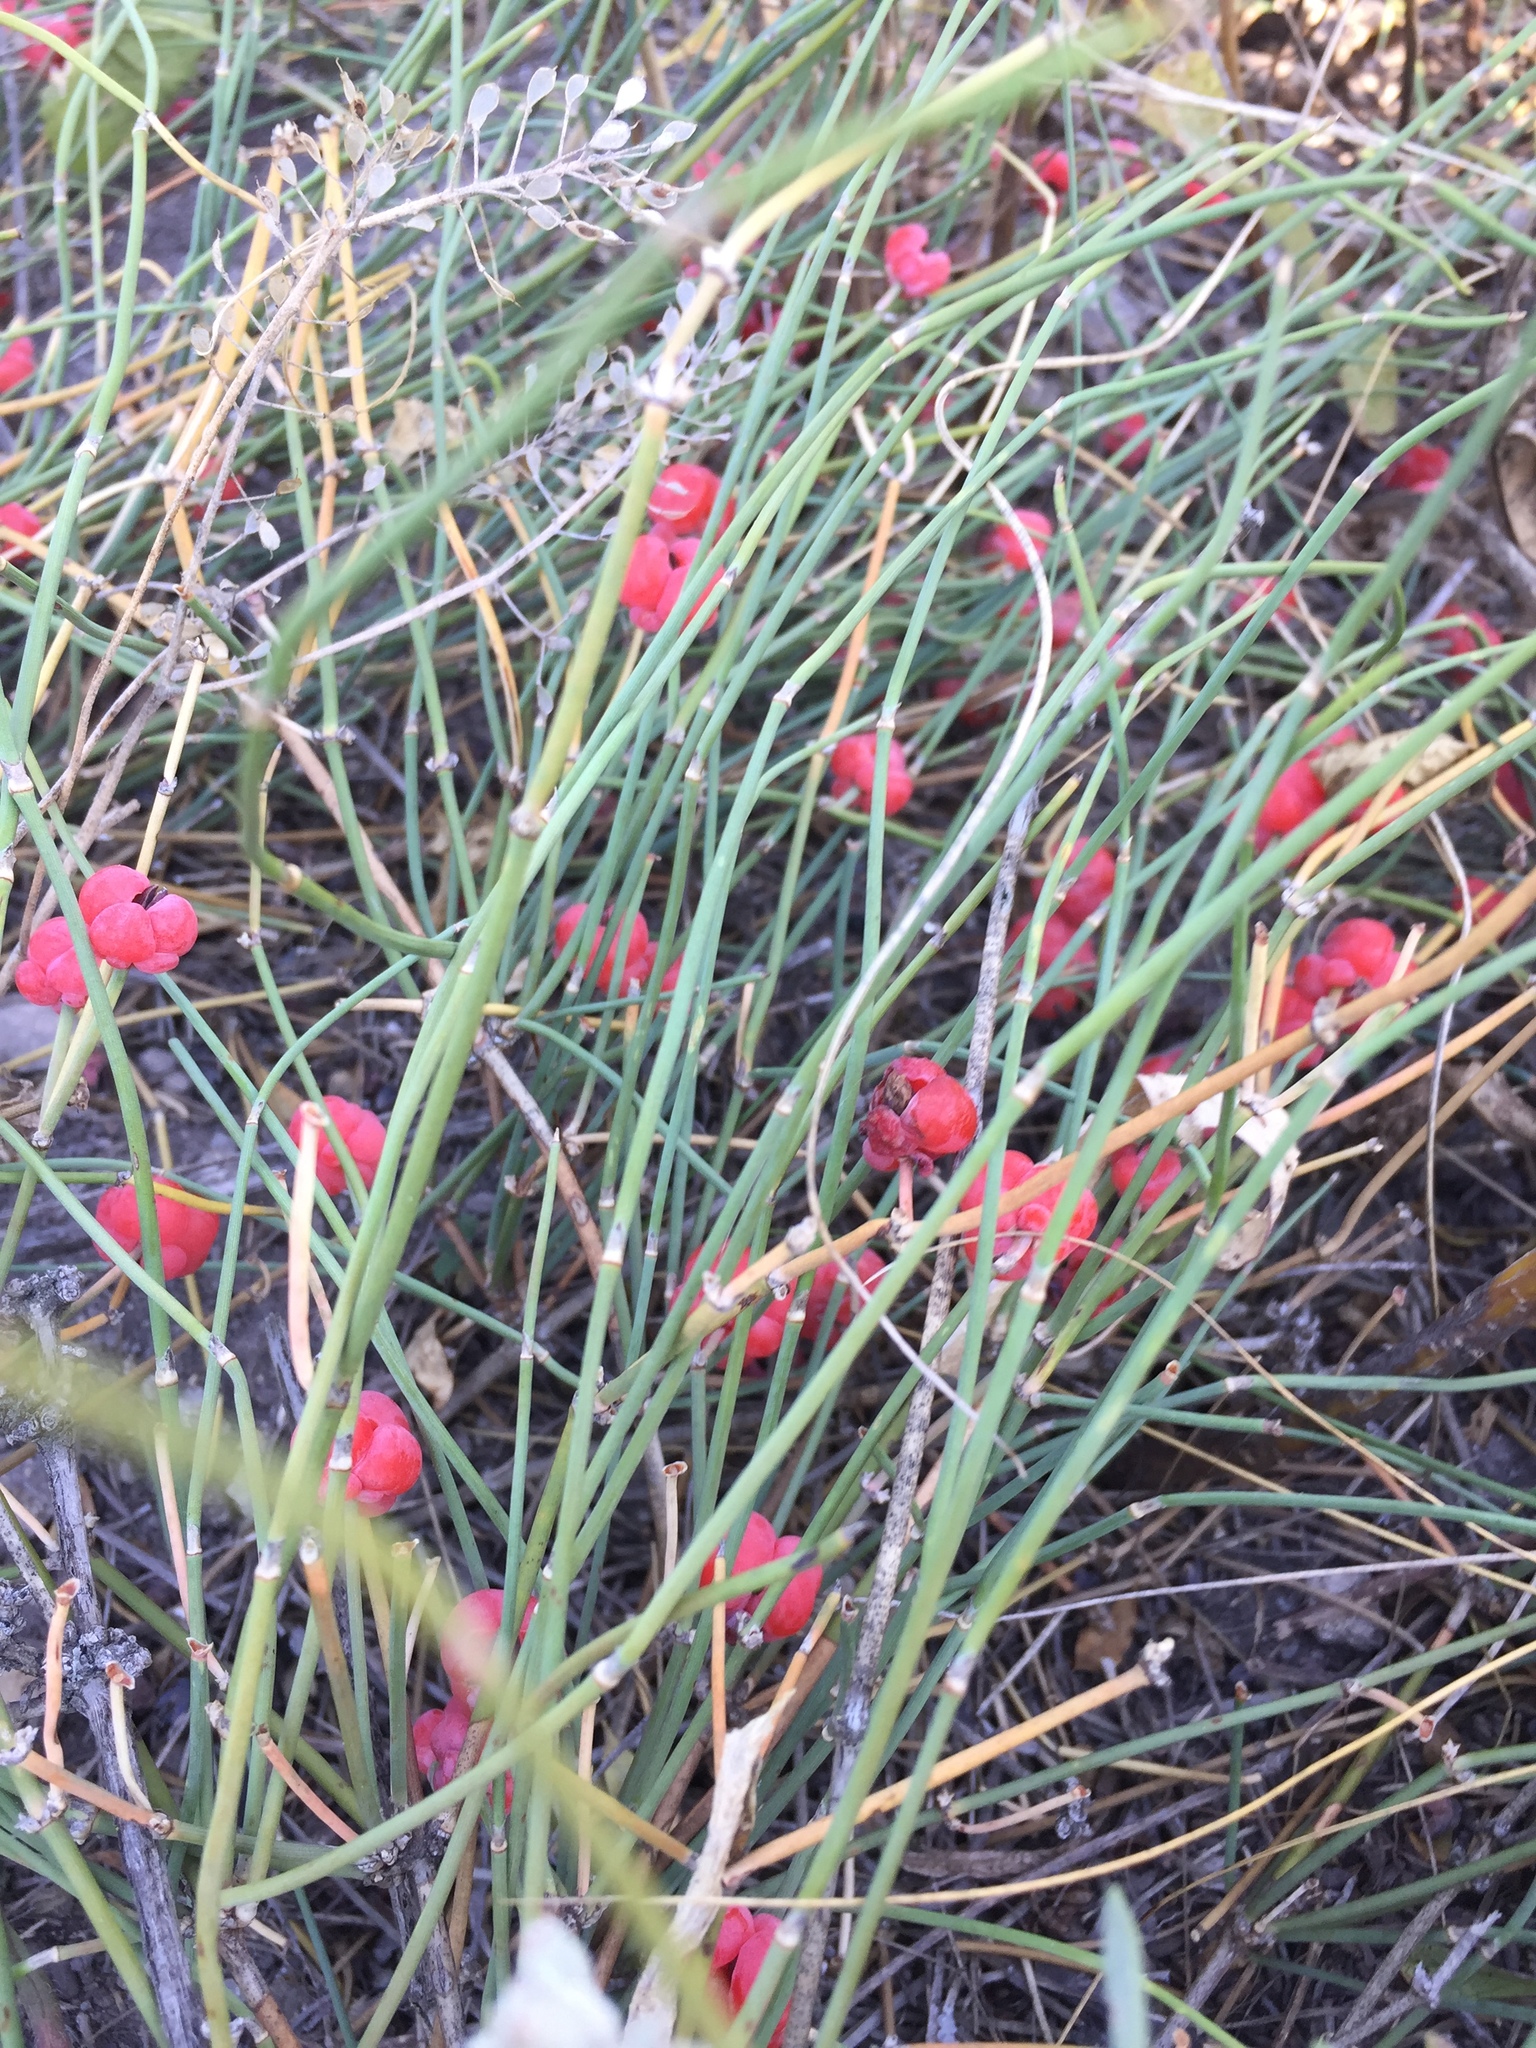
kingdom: Plantae
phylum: Tracheophyta
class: Gnetopsida
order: Ephedrales
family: Ephedraceae
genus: Ephedra
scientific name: Ephedra distachya
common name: Sea grape
